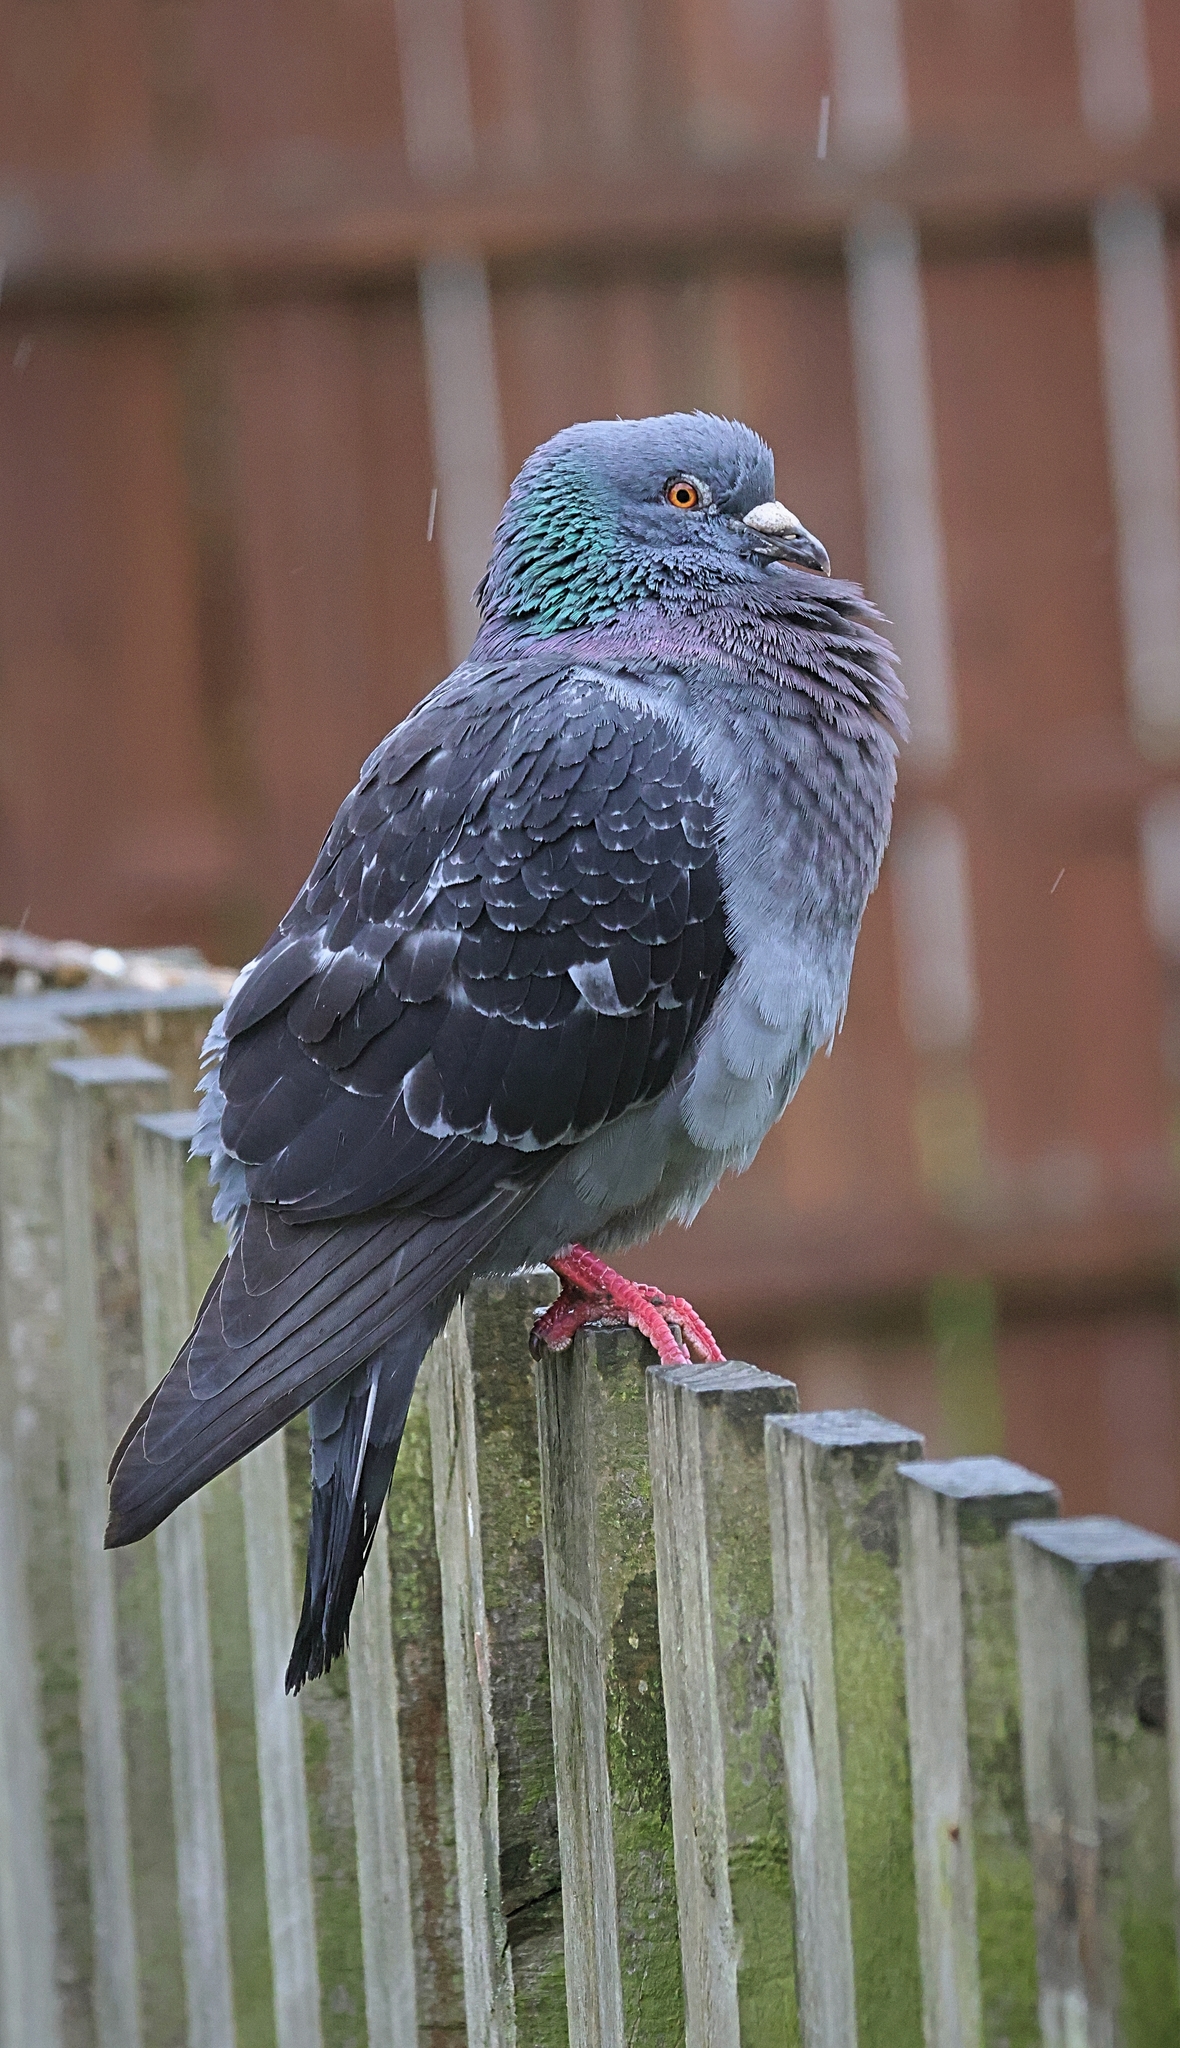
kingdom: Animalia
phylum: Chordata
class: Aves
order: Columbiformes
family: Columbidae
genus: Columba
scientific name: Columba livia
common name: Rock pigeon
